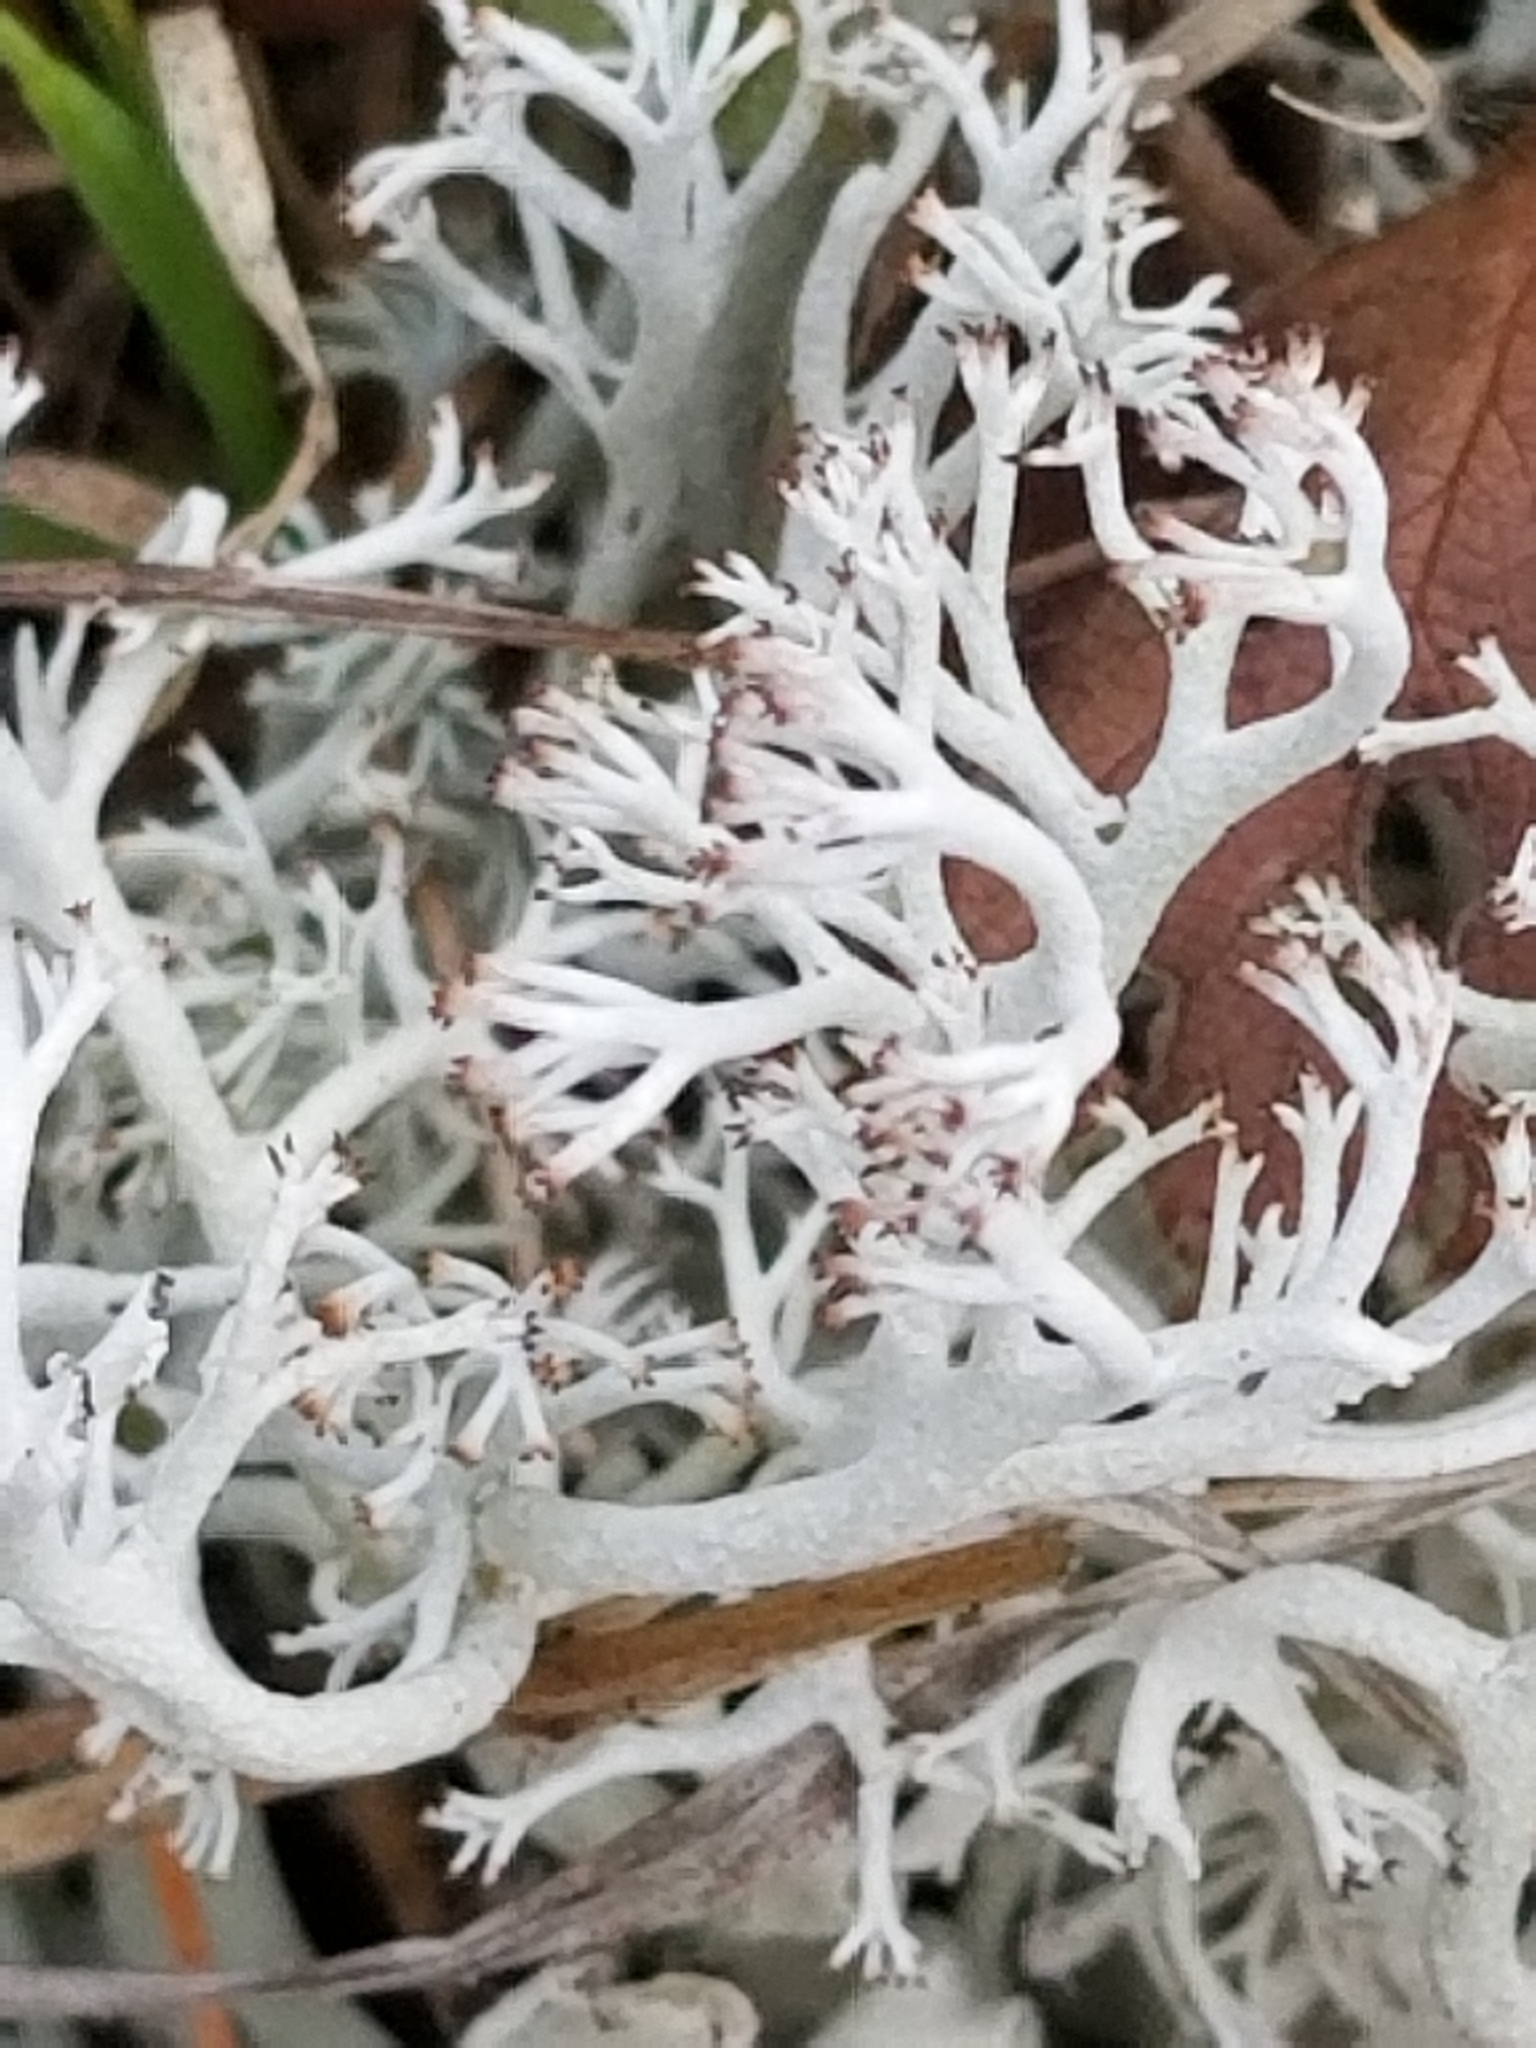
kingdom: Fungi
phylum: Ascomycota
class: Lecanoromycetes
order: Lecanorales
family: Cladoniaceae
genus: Cladonia
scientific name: Cladonia rangiferina
